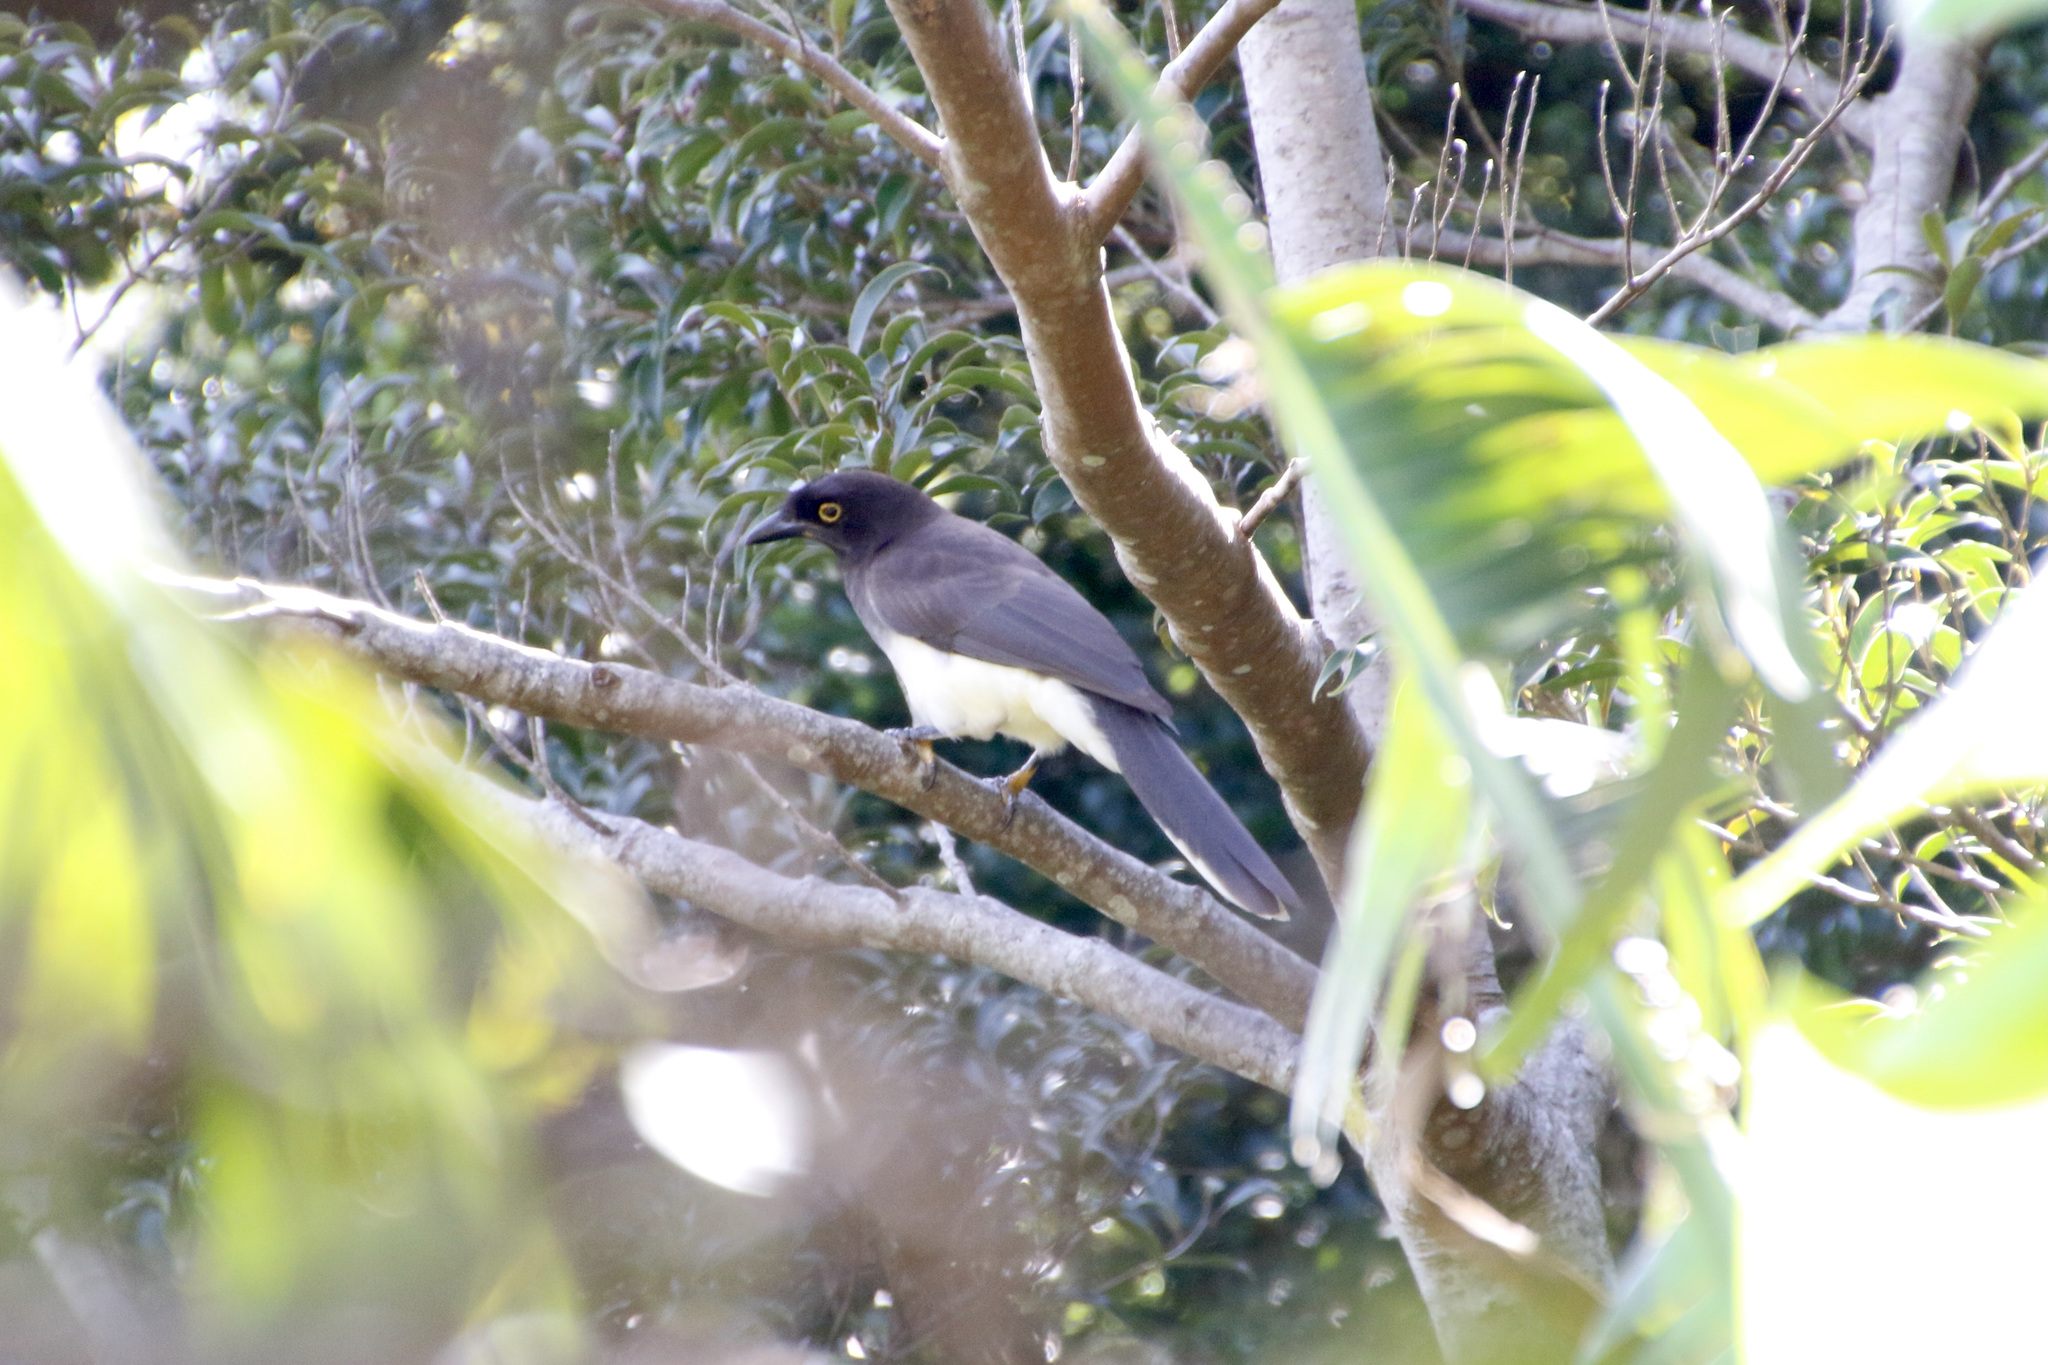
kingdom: Animalia
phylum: Chordata
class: Aves
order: Passeriformes
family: Corvidae
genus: Psilorhinus
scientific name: Psilorhinus morio
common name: Brown jay
